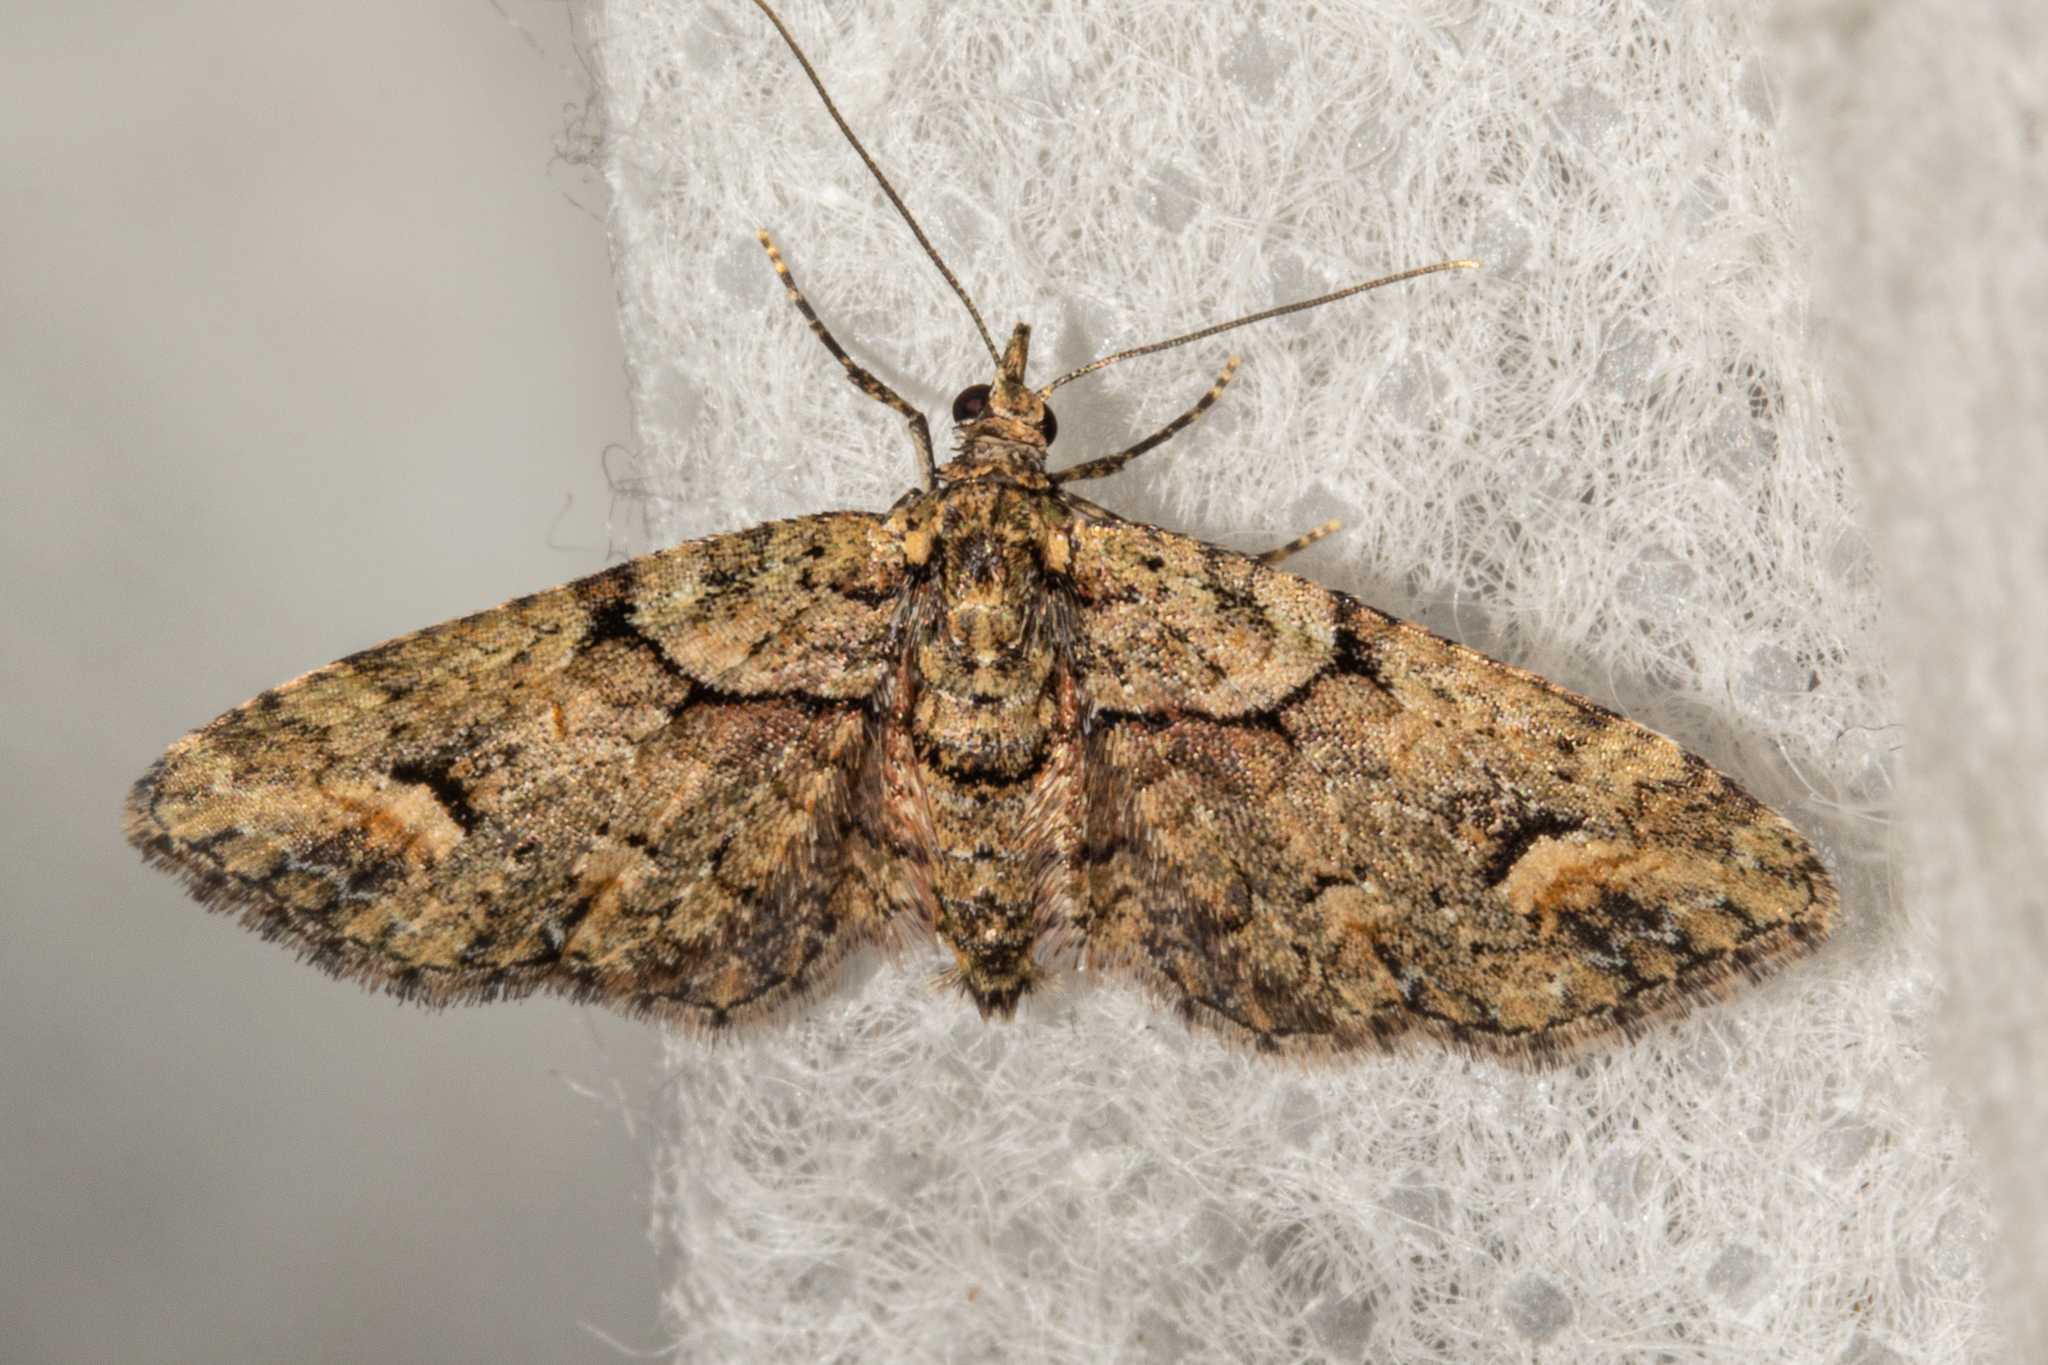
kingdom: Animalia
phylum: Arthropoda
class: Insecta
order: Lepidoptera
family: Geometridae
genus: Idaea
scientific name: Idaea mutanda
